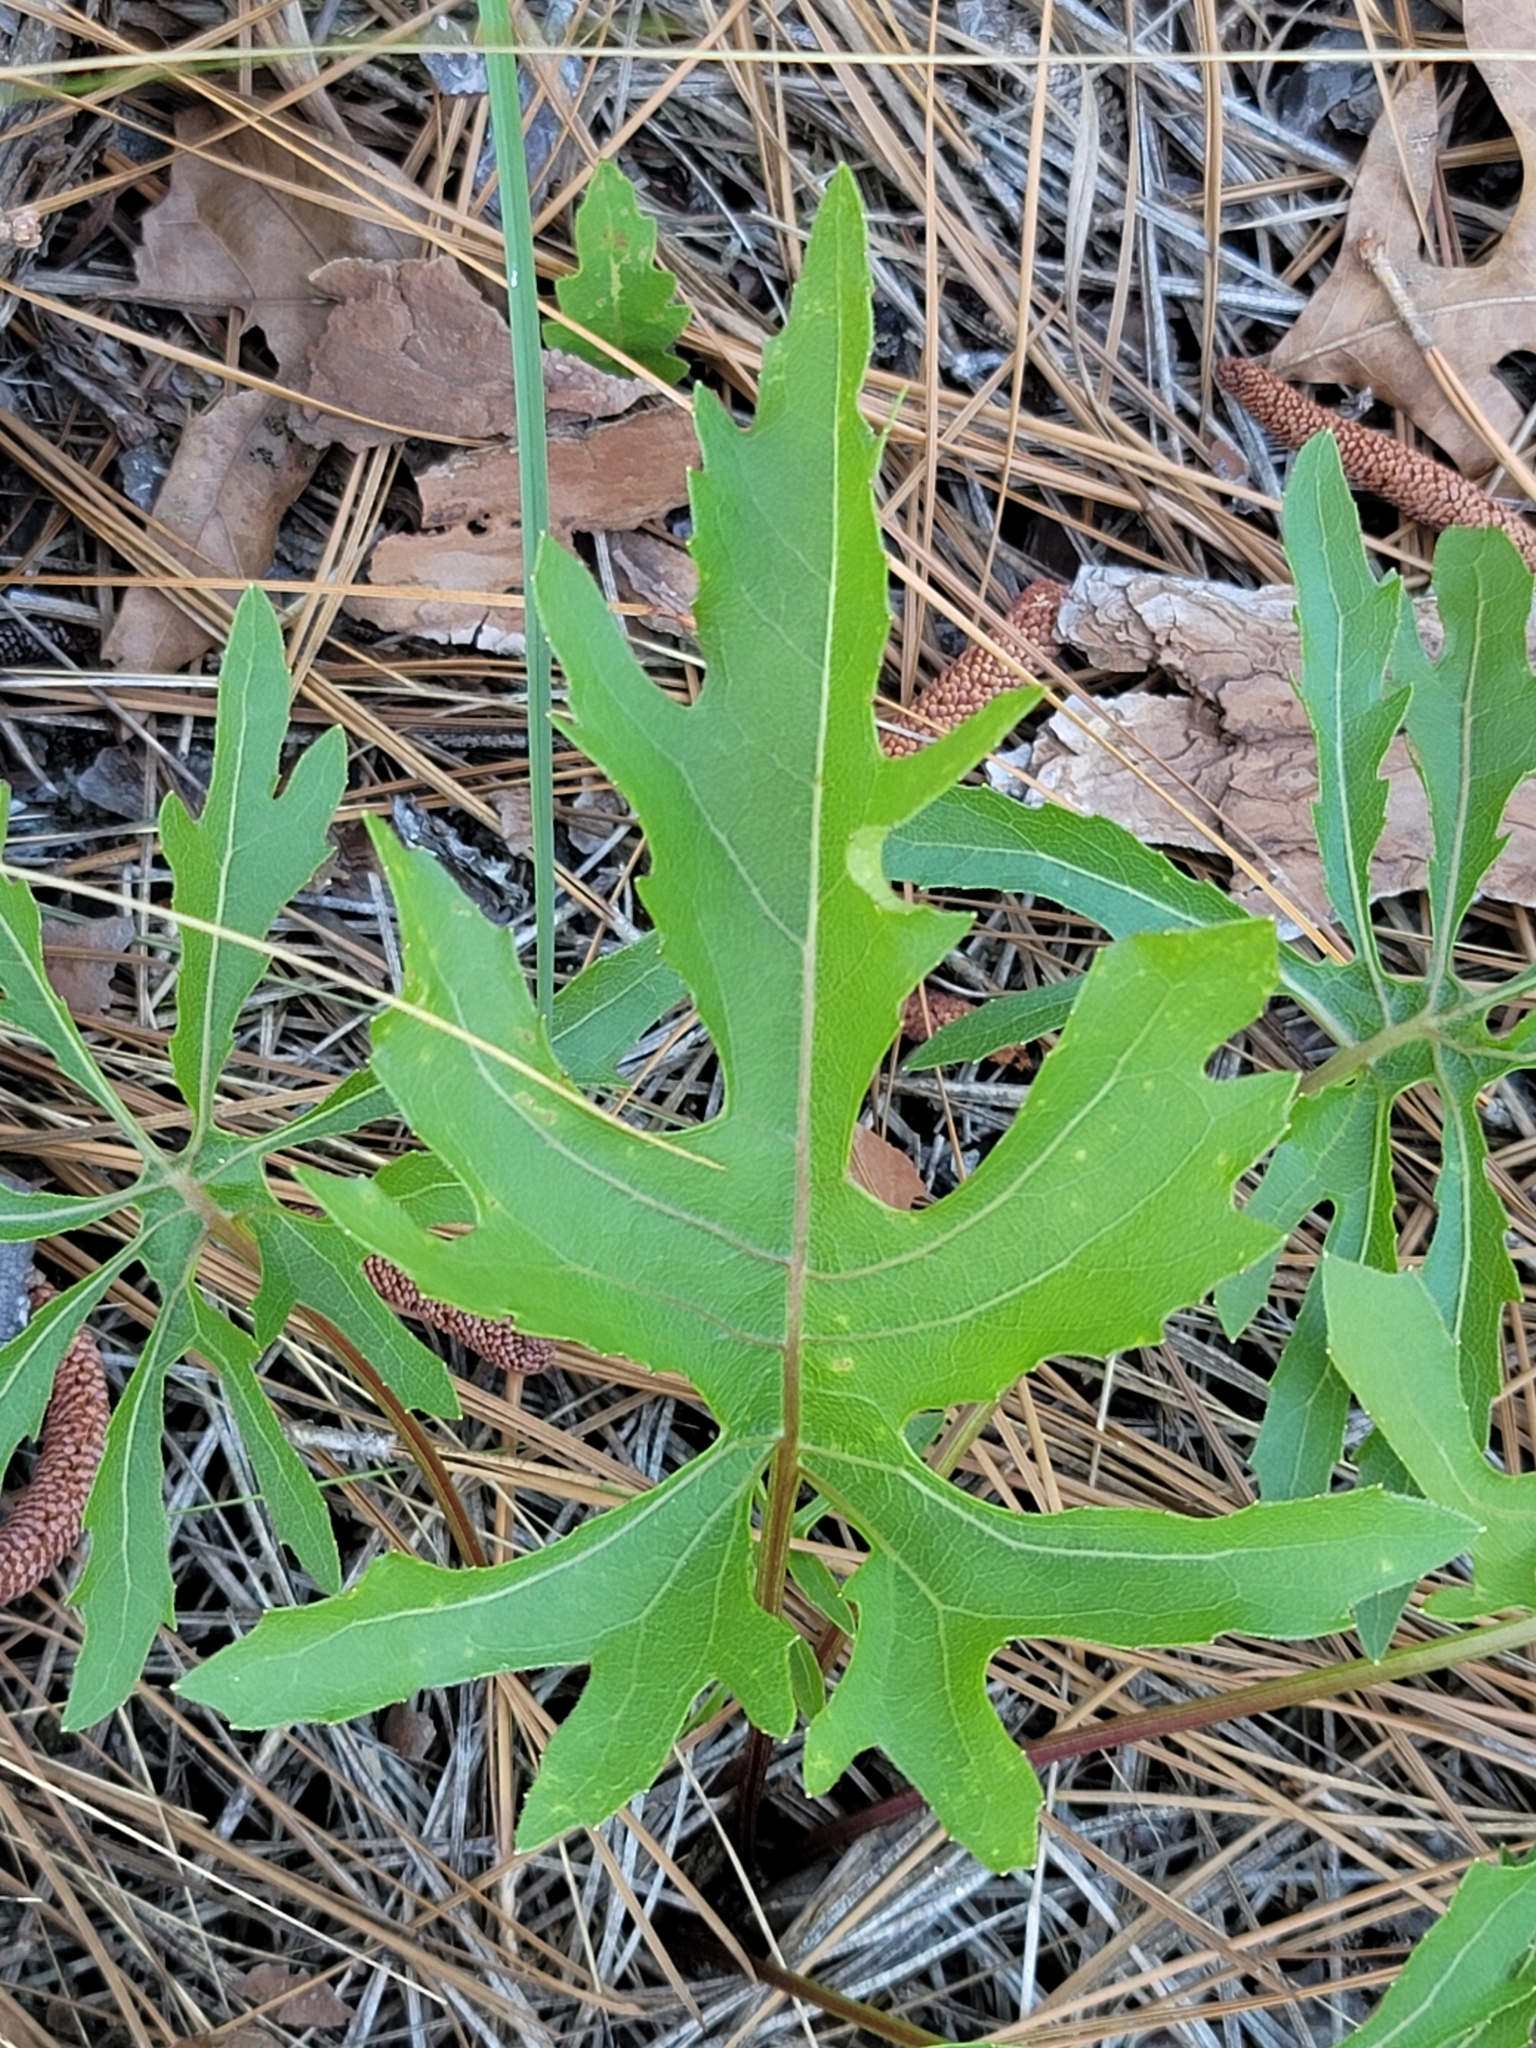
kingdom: Plantae
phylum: Tracheophyta
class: Magnoliopsida
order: Asterales
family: Asteraceae
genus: Silphium
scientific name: Silphium compositum
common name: Lesser basal-leaf rosinweed
